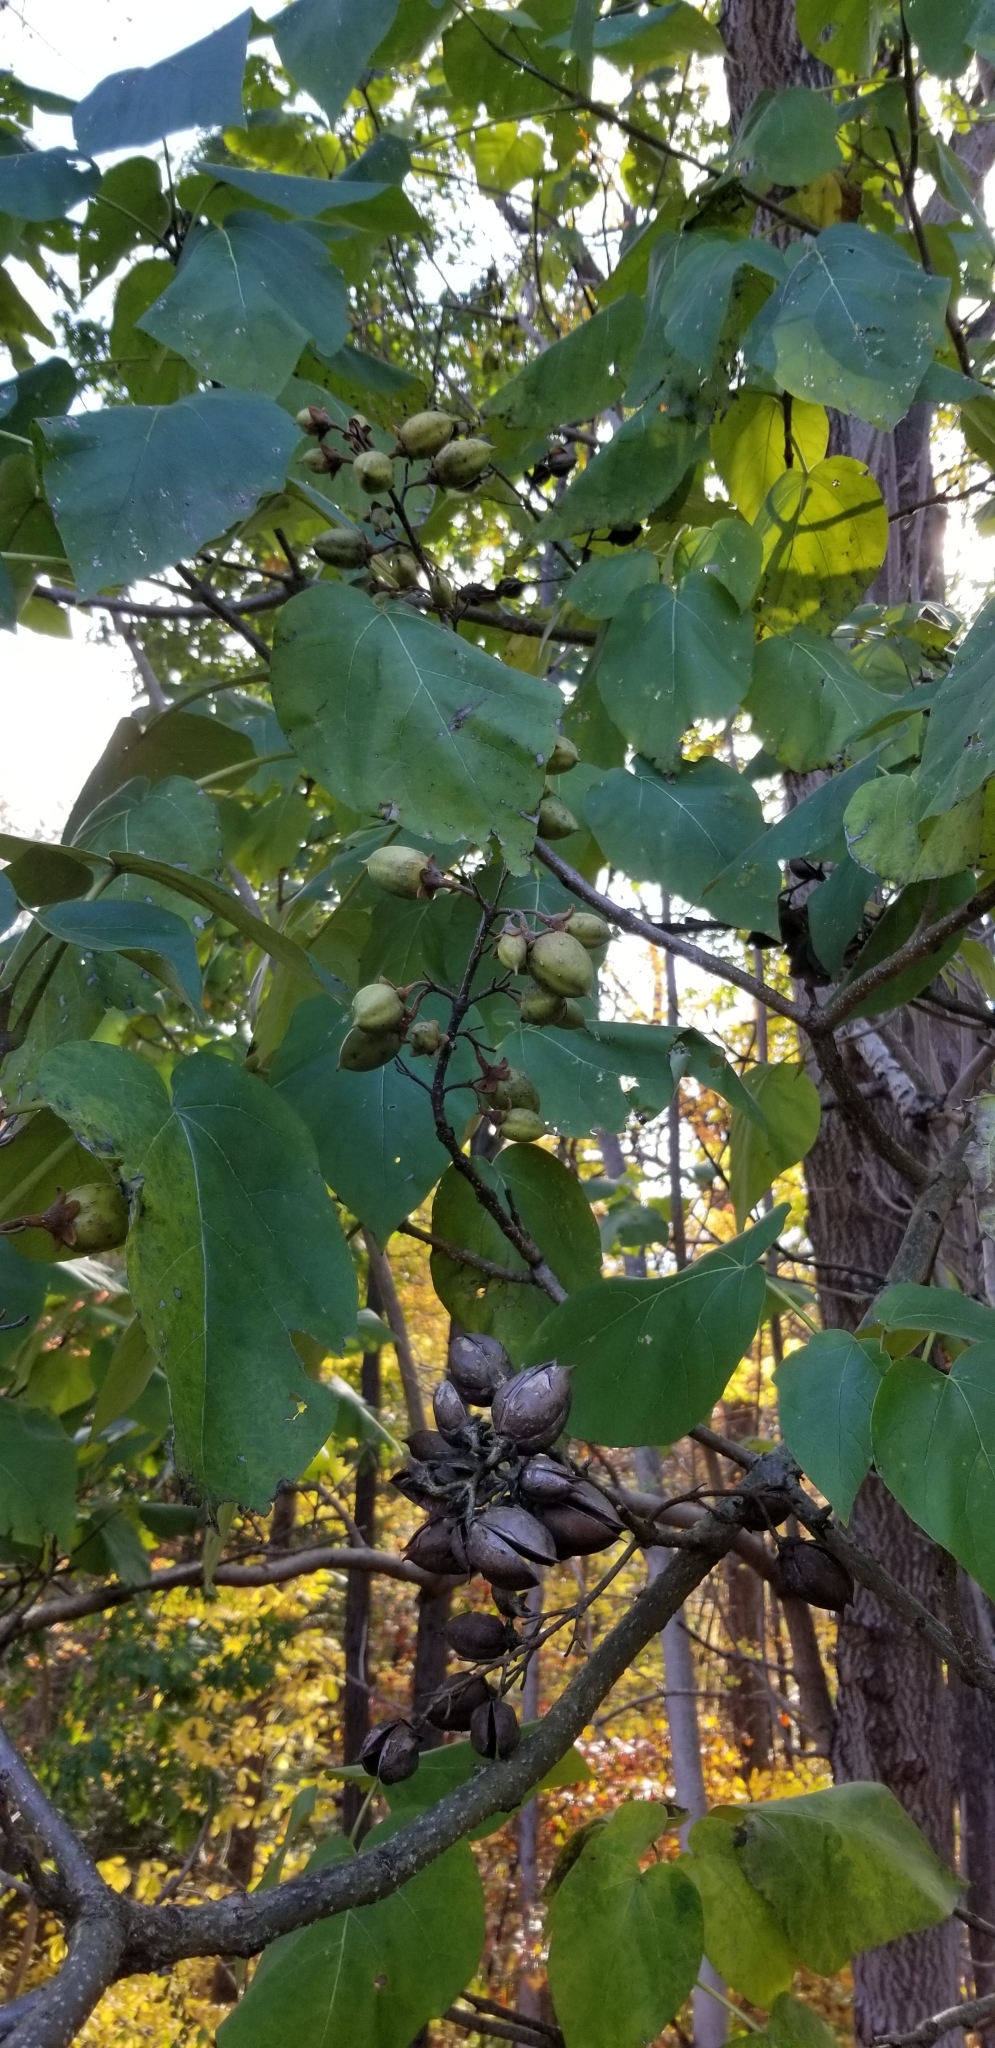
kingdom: Plantae
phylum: Tracheophyta
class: Magnoliopsida
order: Lamiales
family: Paulowniaceae
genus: Paulownia
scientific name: Paulownia tomentosa
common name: Foxglove-tree
